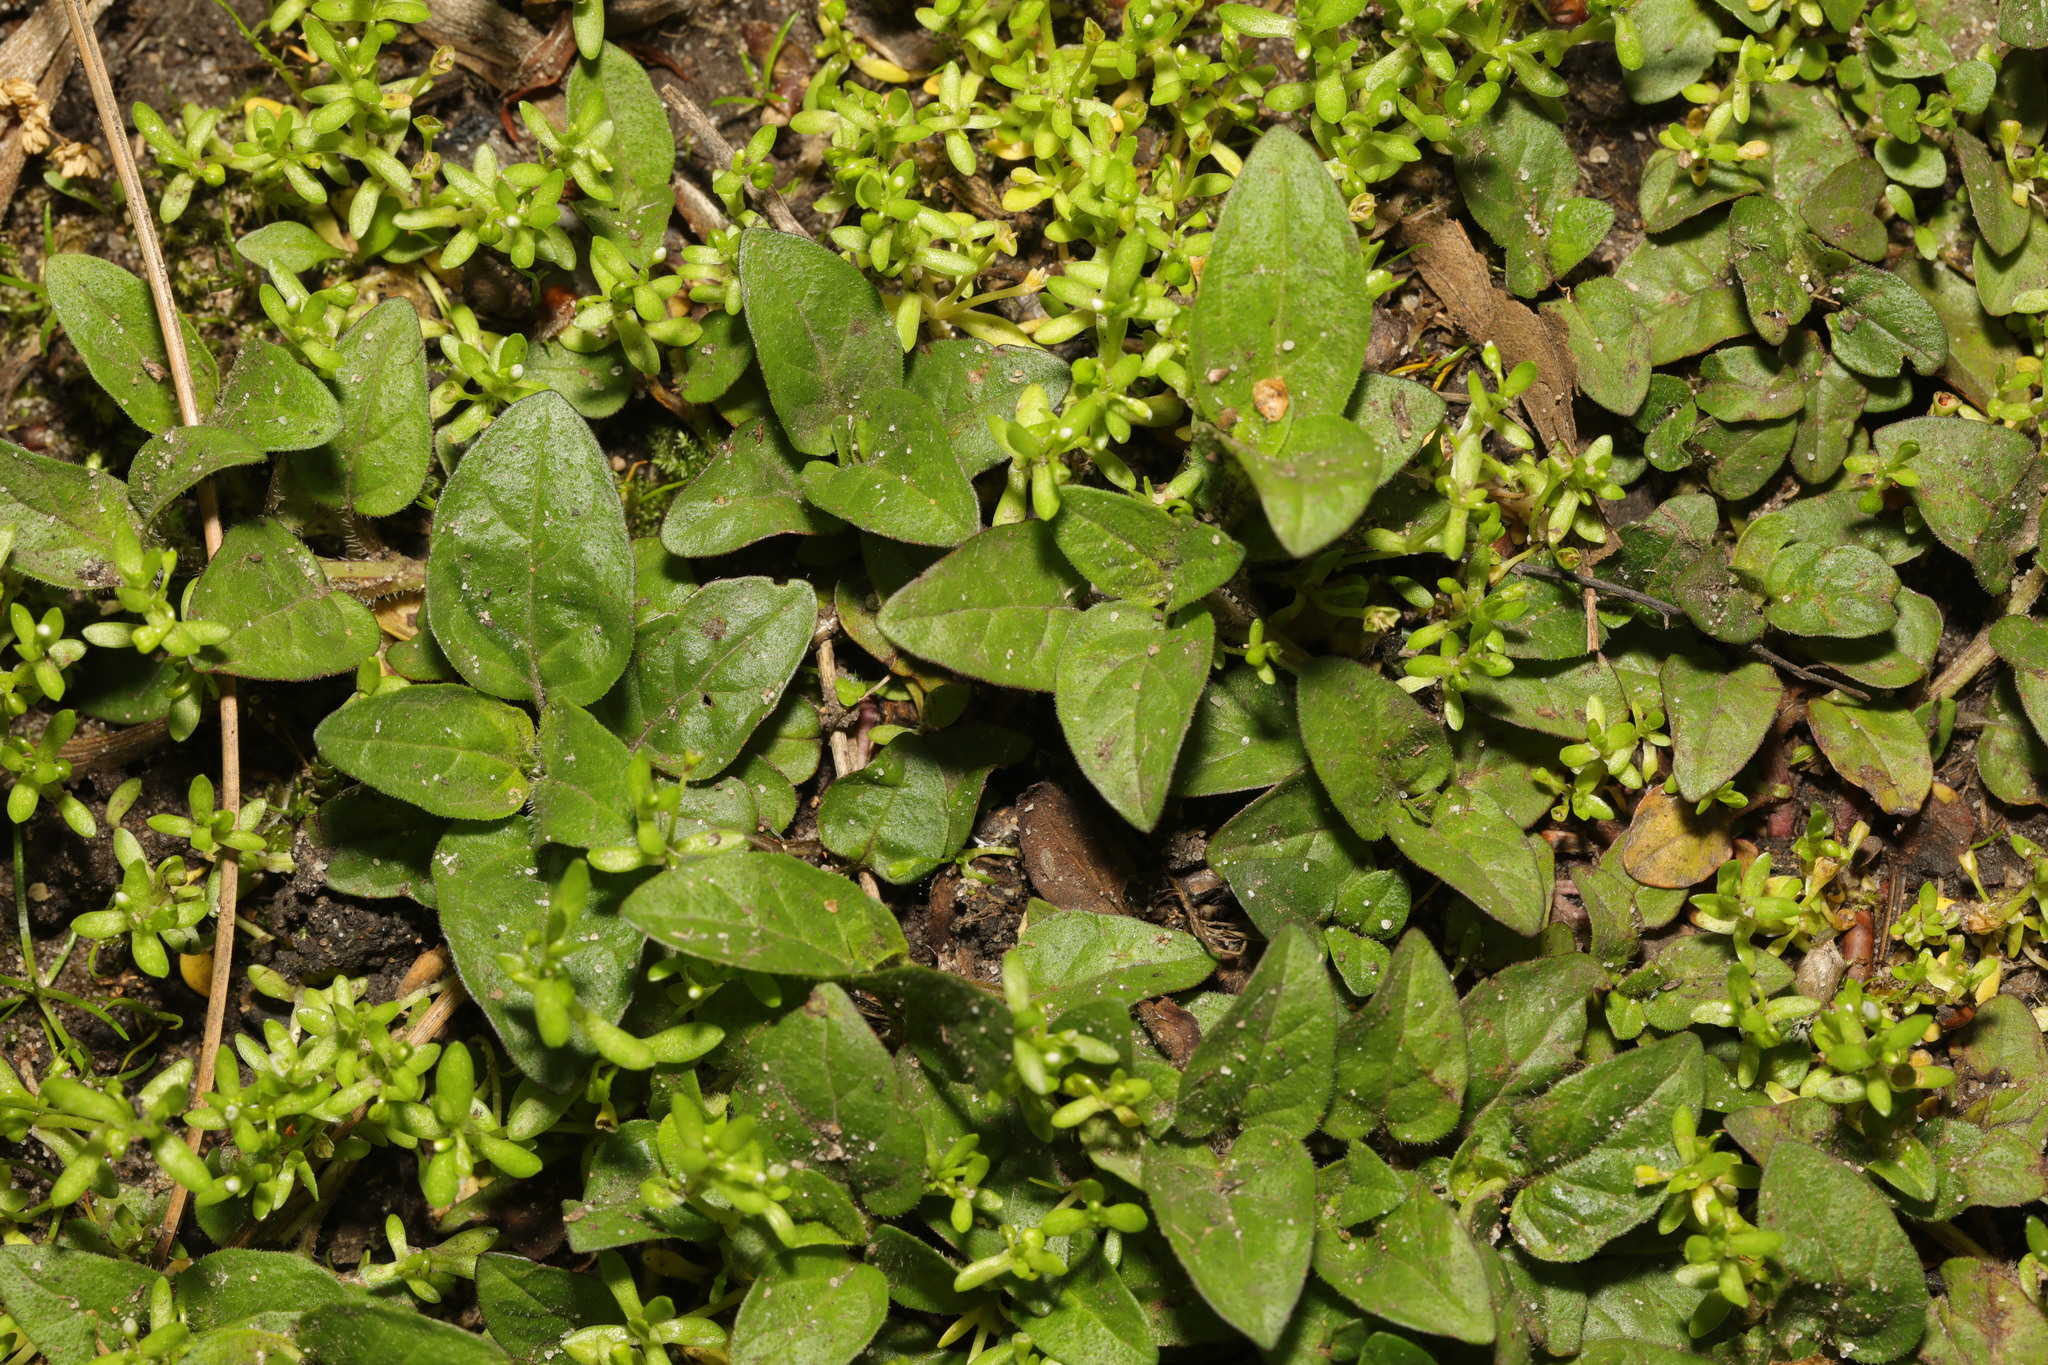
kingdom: Plantae
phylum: Tracheophyta
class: Magnoliopsida
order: Lamiales
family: Lamiaceae
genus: Prunella
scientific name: Prunella vulgaris
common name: Heal-all
